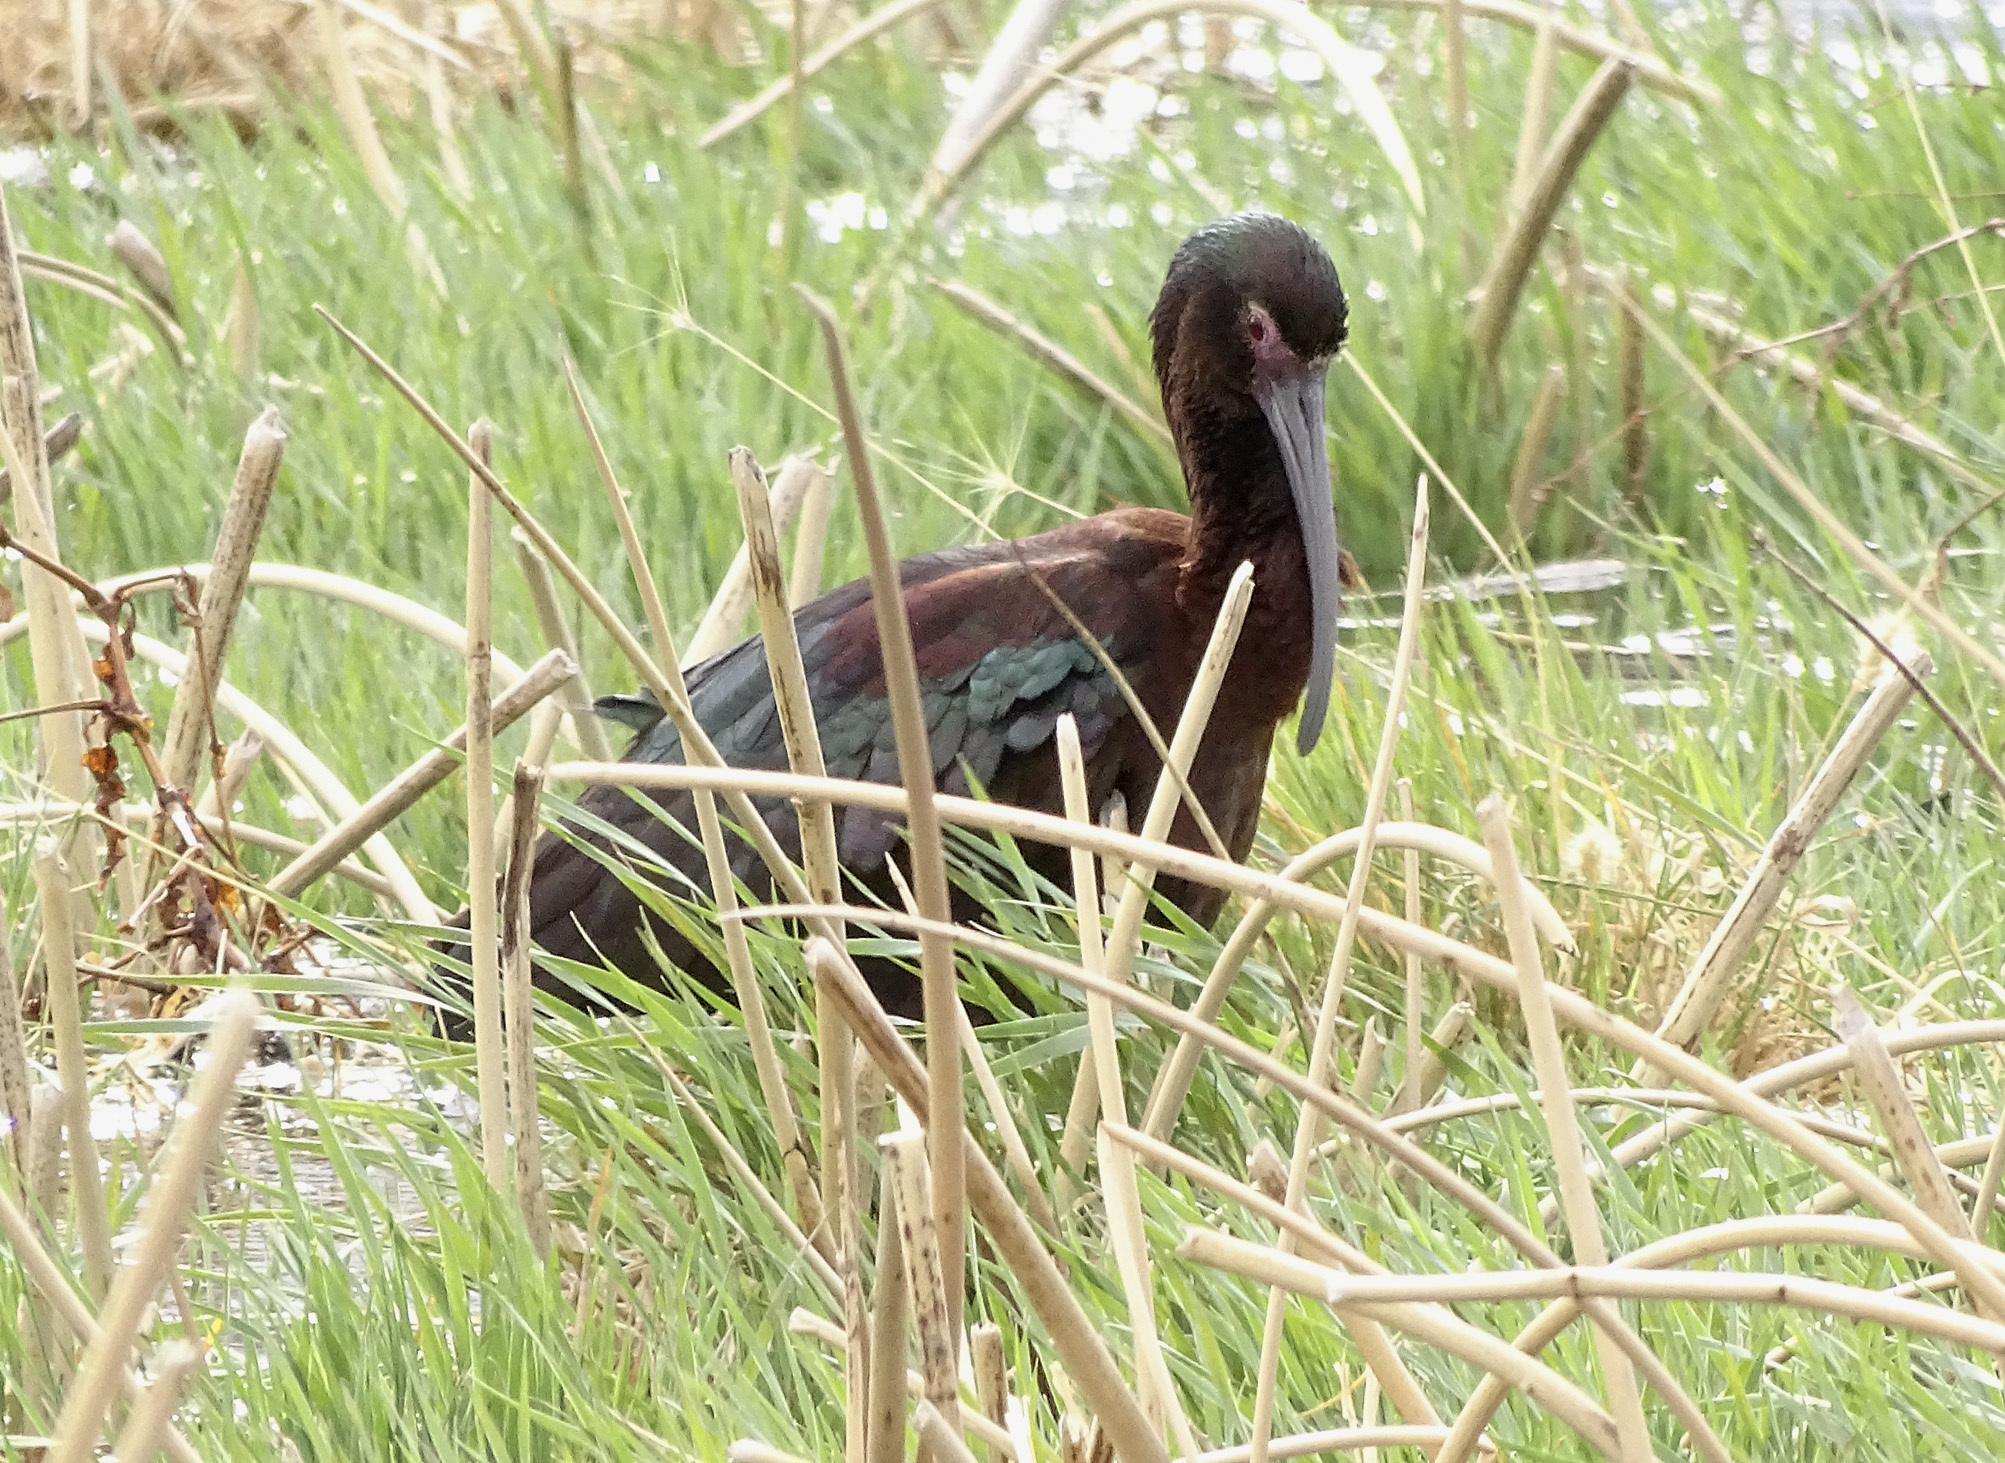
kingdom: Animalia
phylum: Chordata
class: Aves
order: Pelecaniformes
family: Threskiornithidae
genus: Plegadis
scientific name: Plegadis chihi
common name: White-faced ibis
